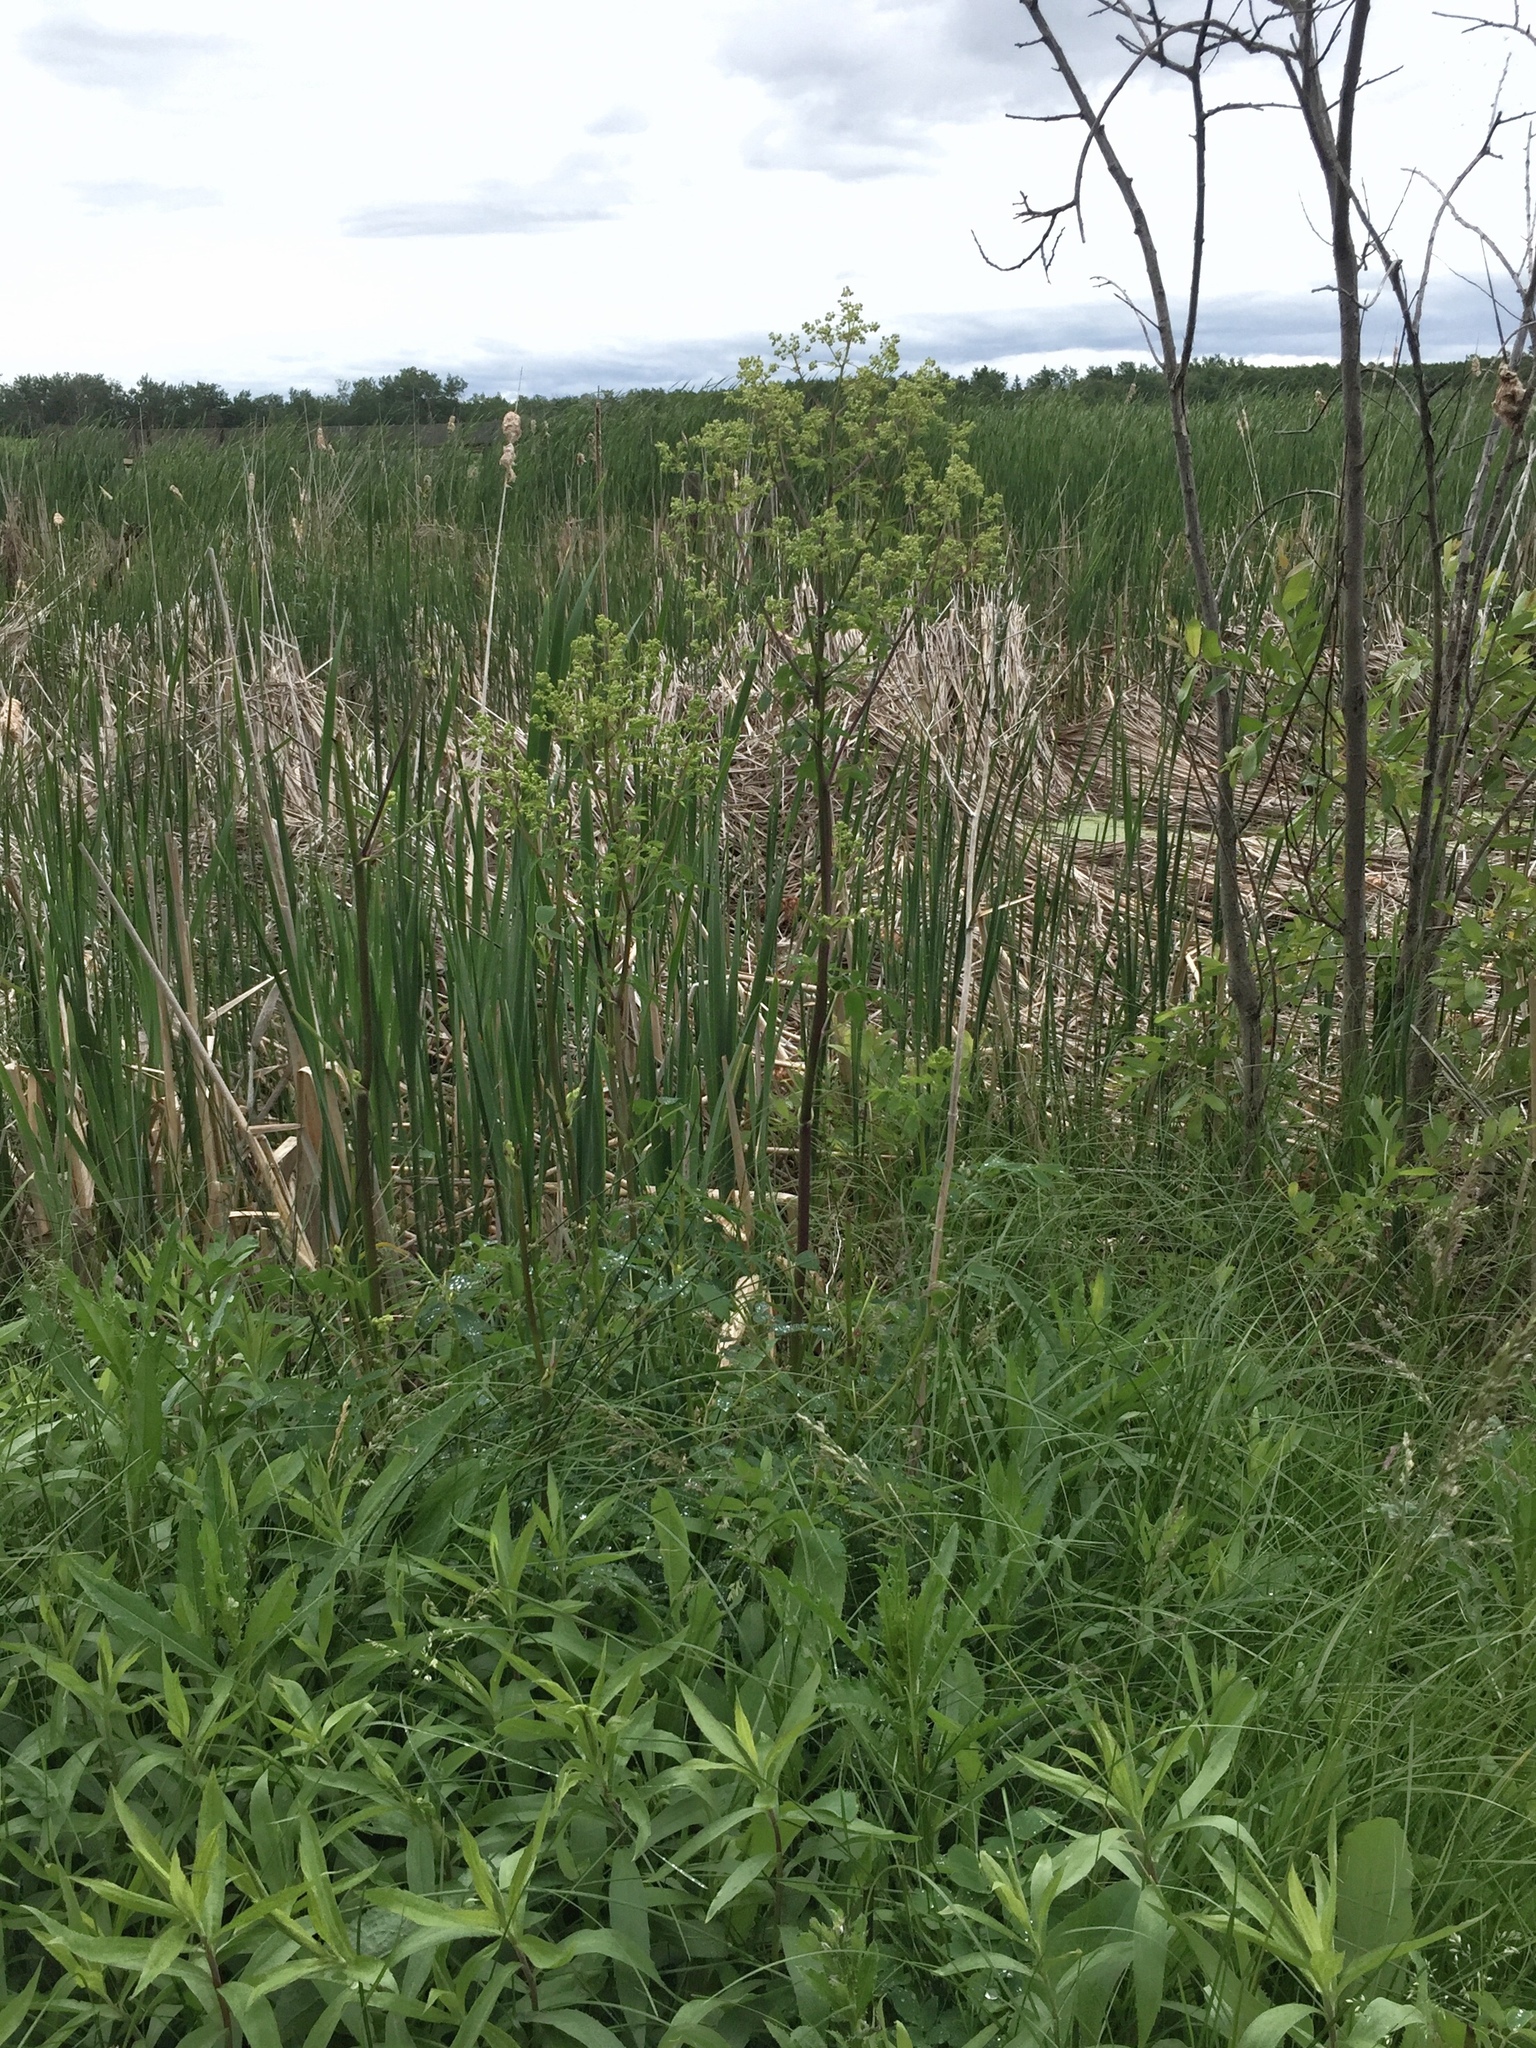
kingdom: Plantae
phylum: Tracheophyta
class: Magnoliopsida
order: Ranunculales
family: Ranunculaceae
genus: Thalictrum
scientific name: Thalictrum dasycarpum
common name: Purple meadow-rue
